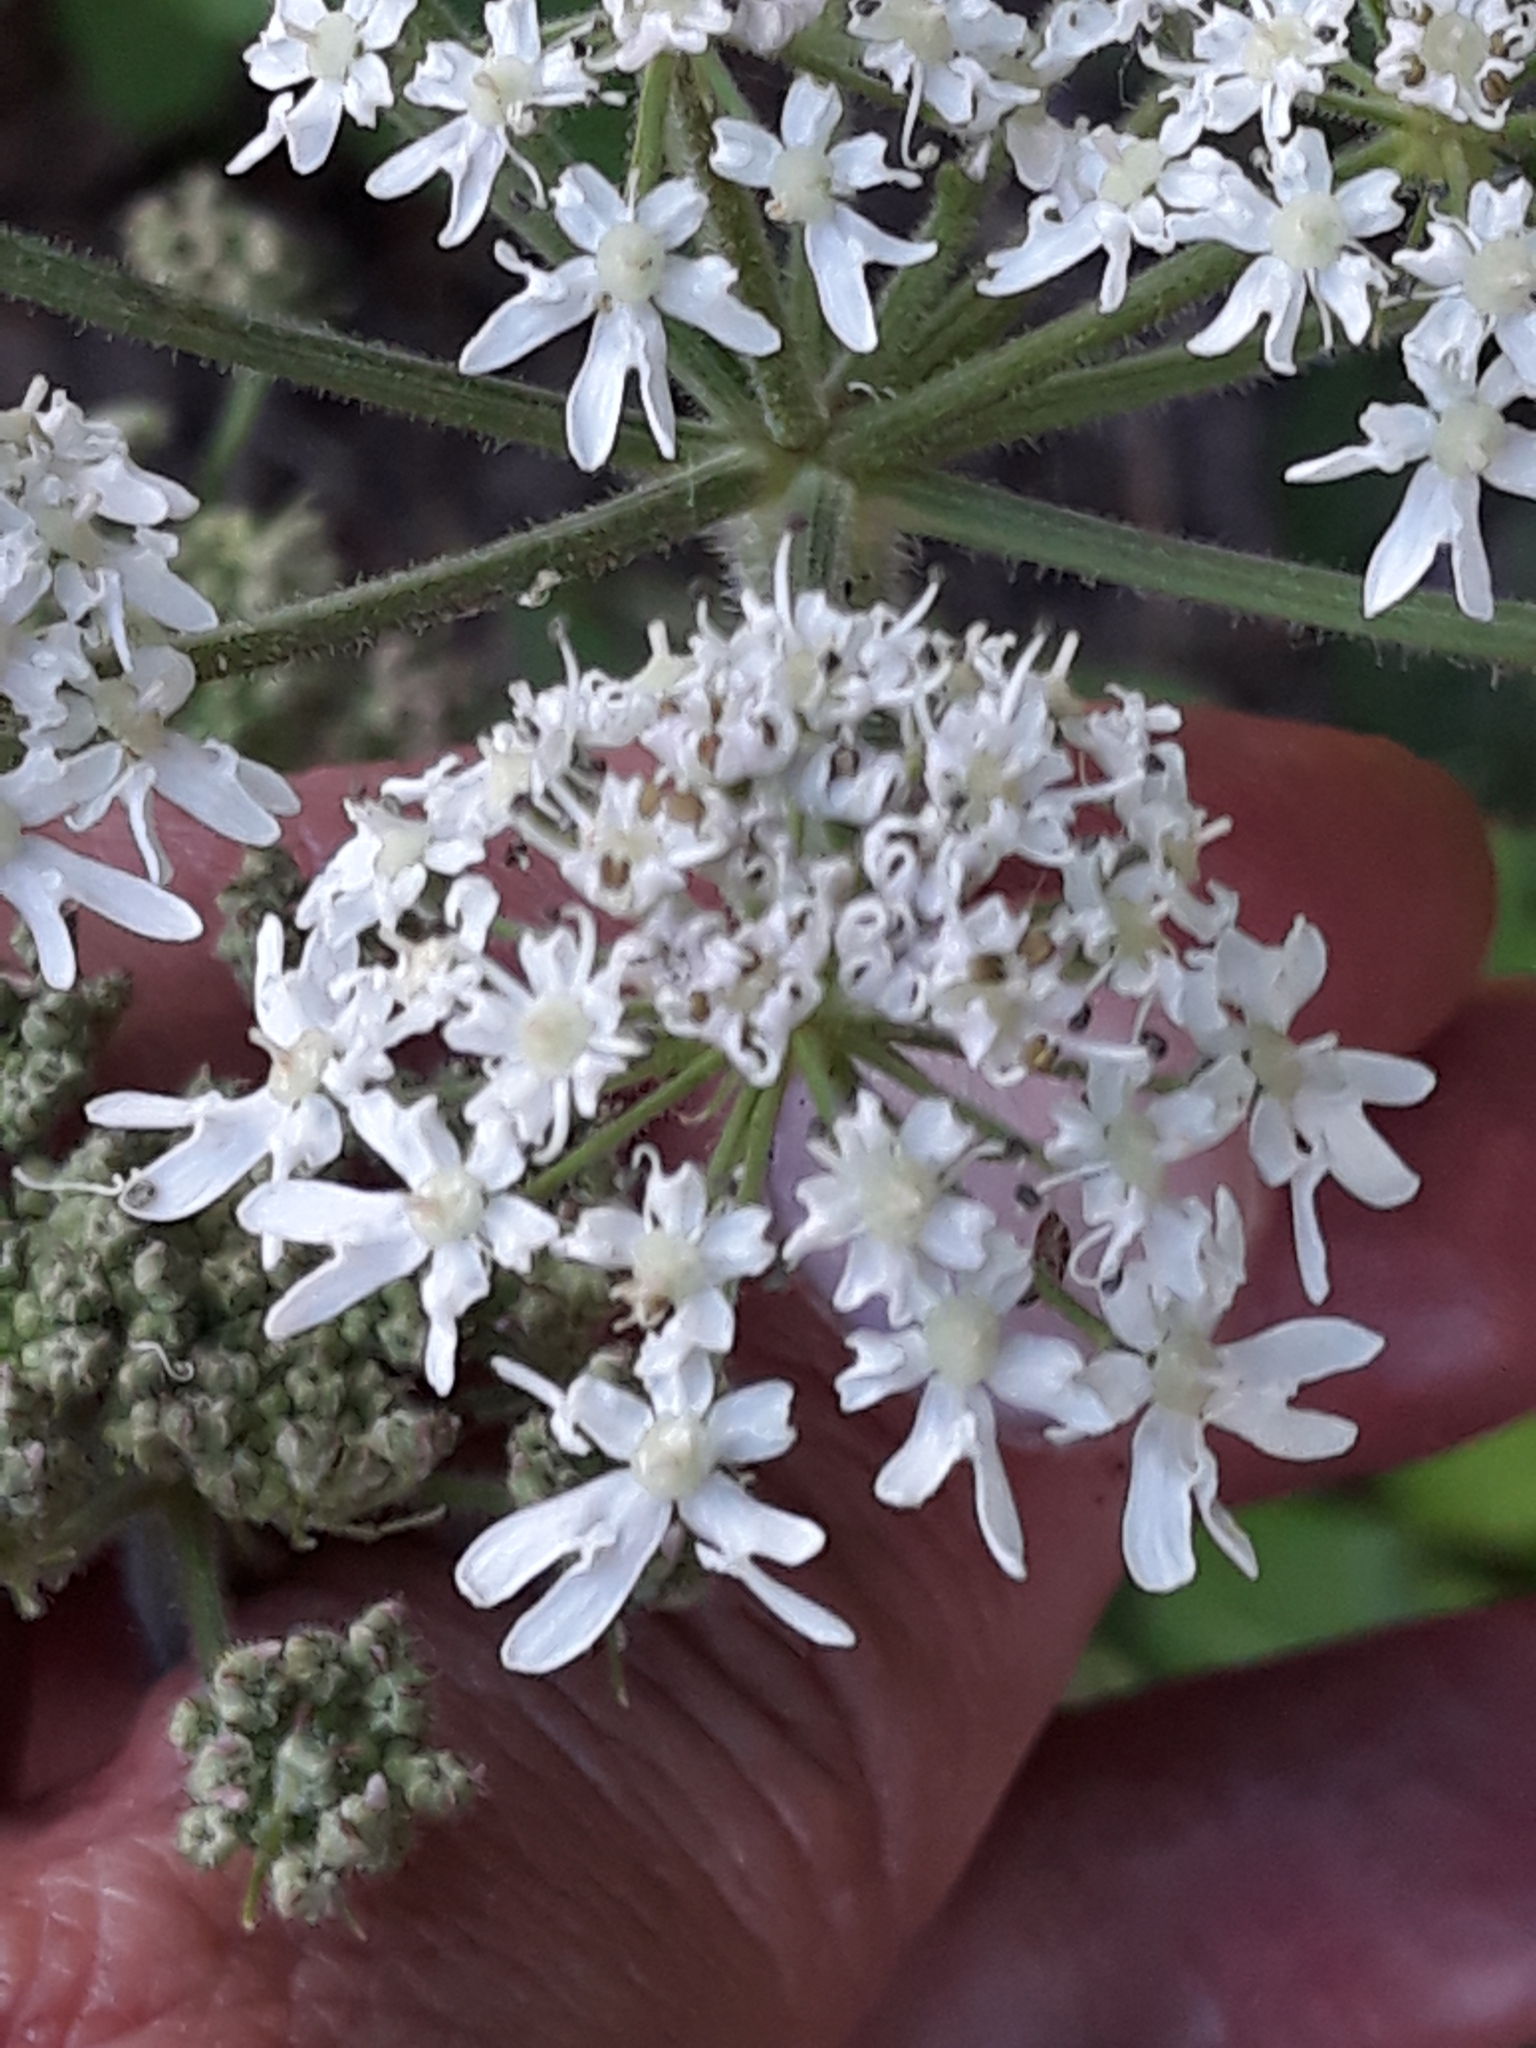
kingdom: Plantae
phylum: Tracheophyta
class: Magnoliopsida
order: Apiales
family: Apiaceae
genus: Heracleum
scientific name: Heracleum sphondylium
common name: Hogweed
